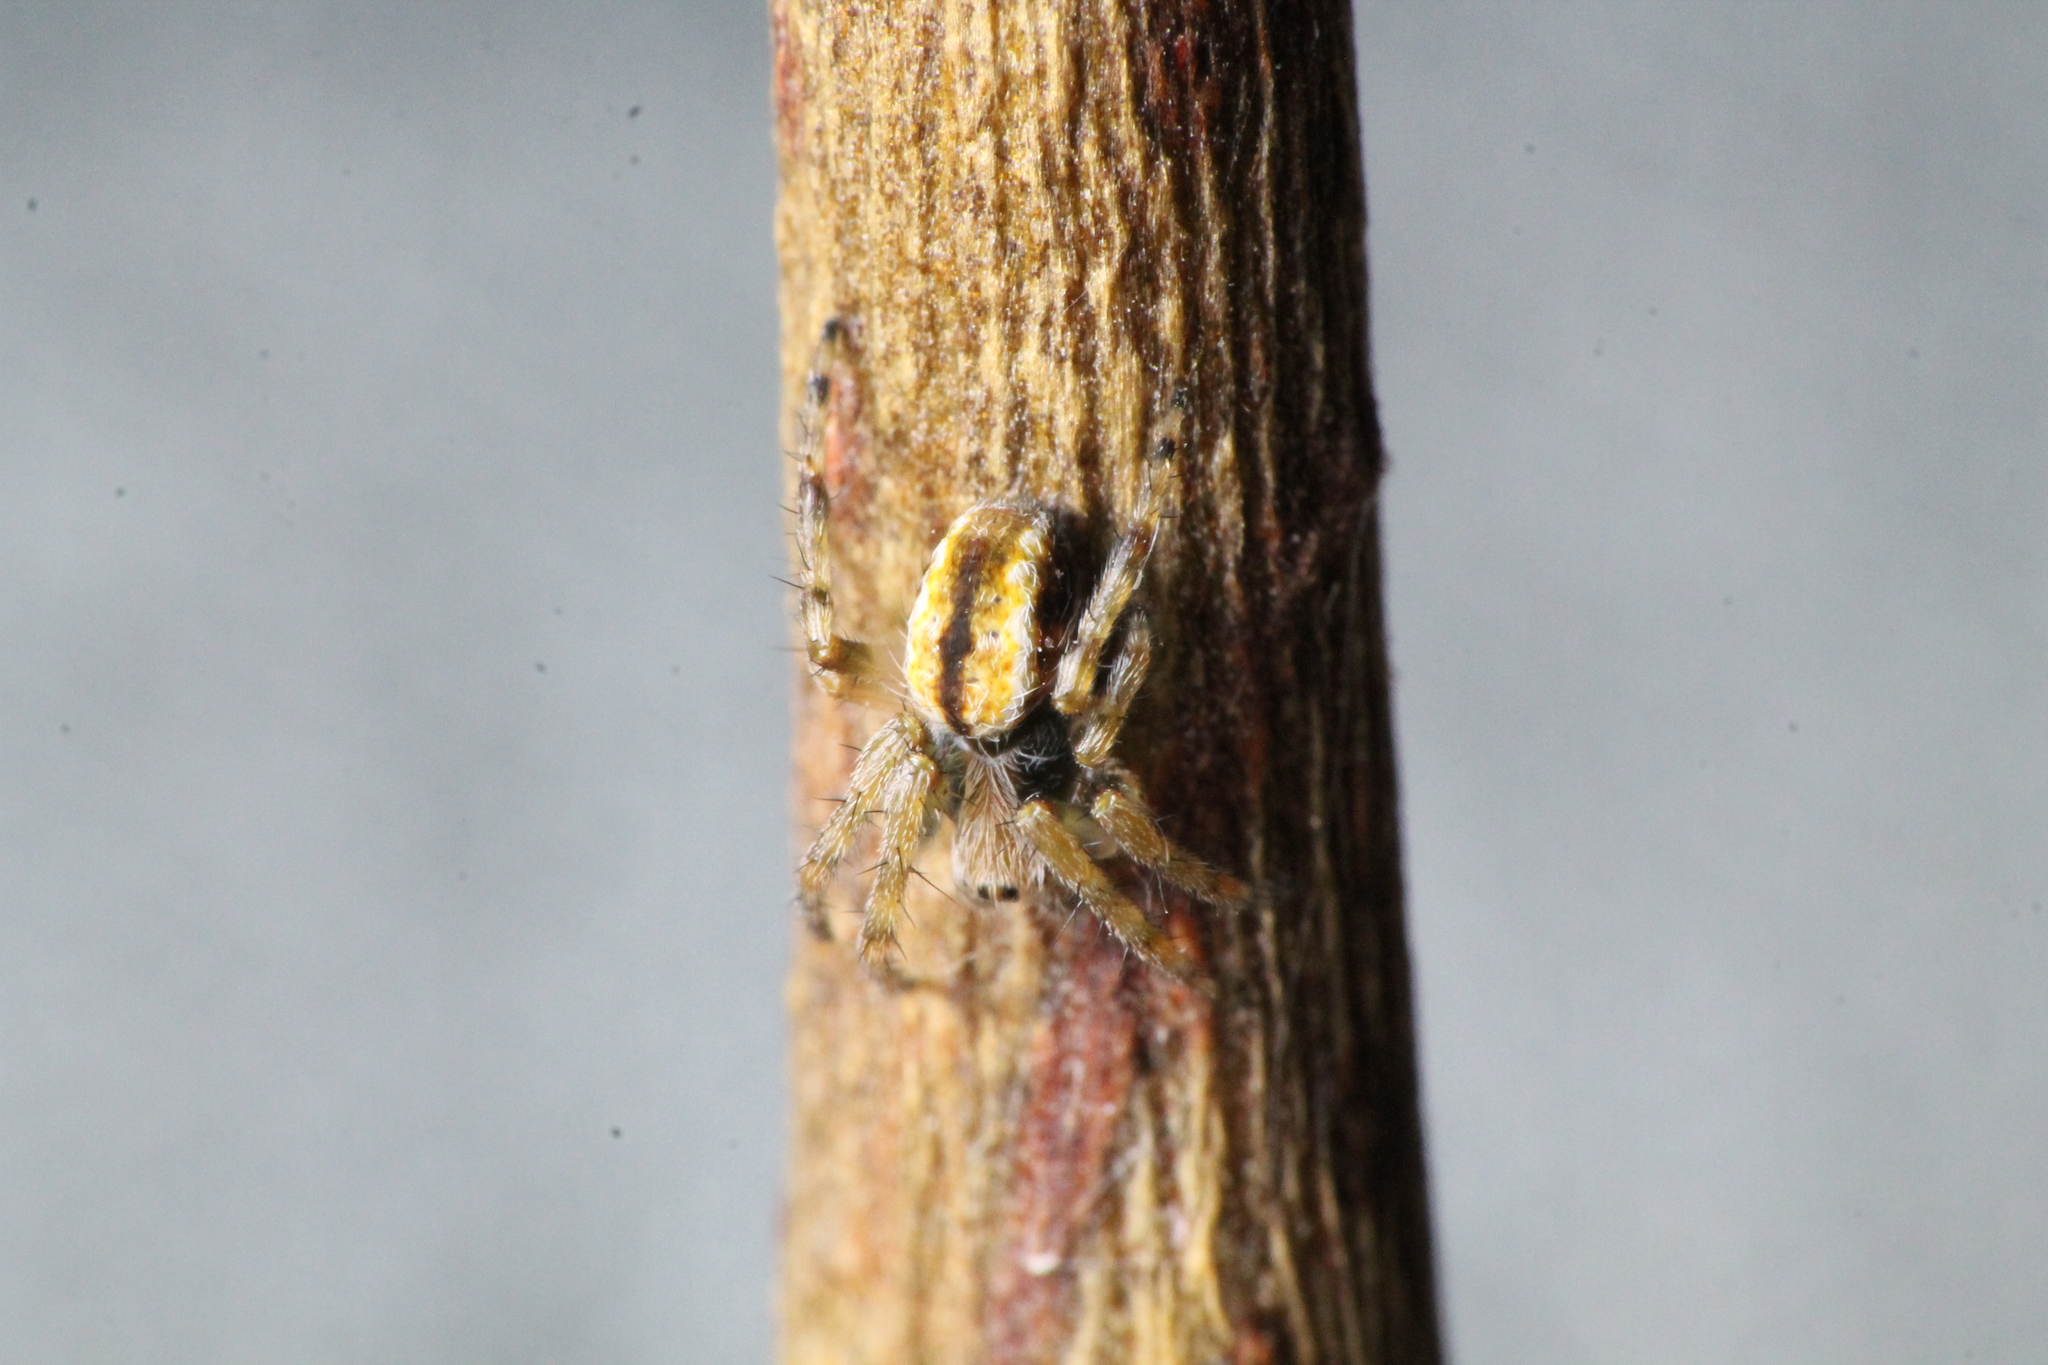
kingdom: Animalia
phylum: Arthropoda
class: Arachnida
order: Araneae
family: Araneidae
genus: Salsa
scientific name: Salsa fuliginata
